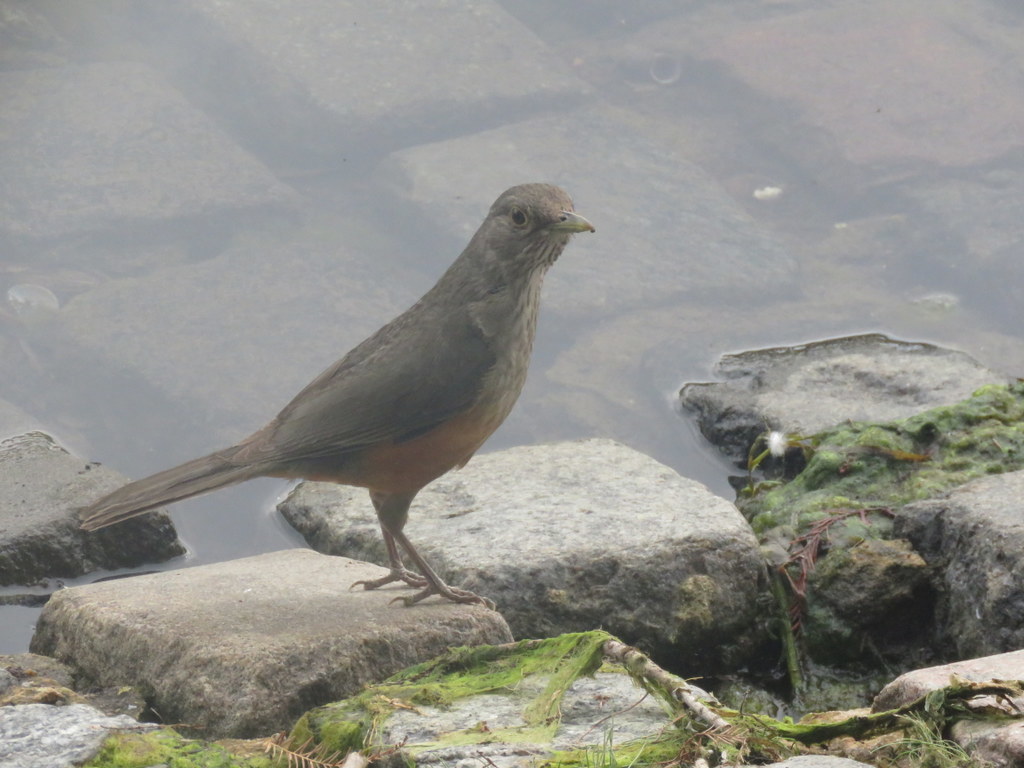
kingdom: Animalia
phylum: Chordata
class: Aves
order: Passeriformes
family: Turdidae
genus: Turdus
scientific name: Turdus rufiventris
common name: Rufous-bellied thrush
